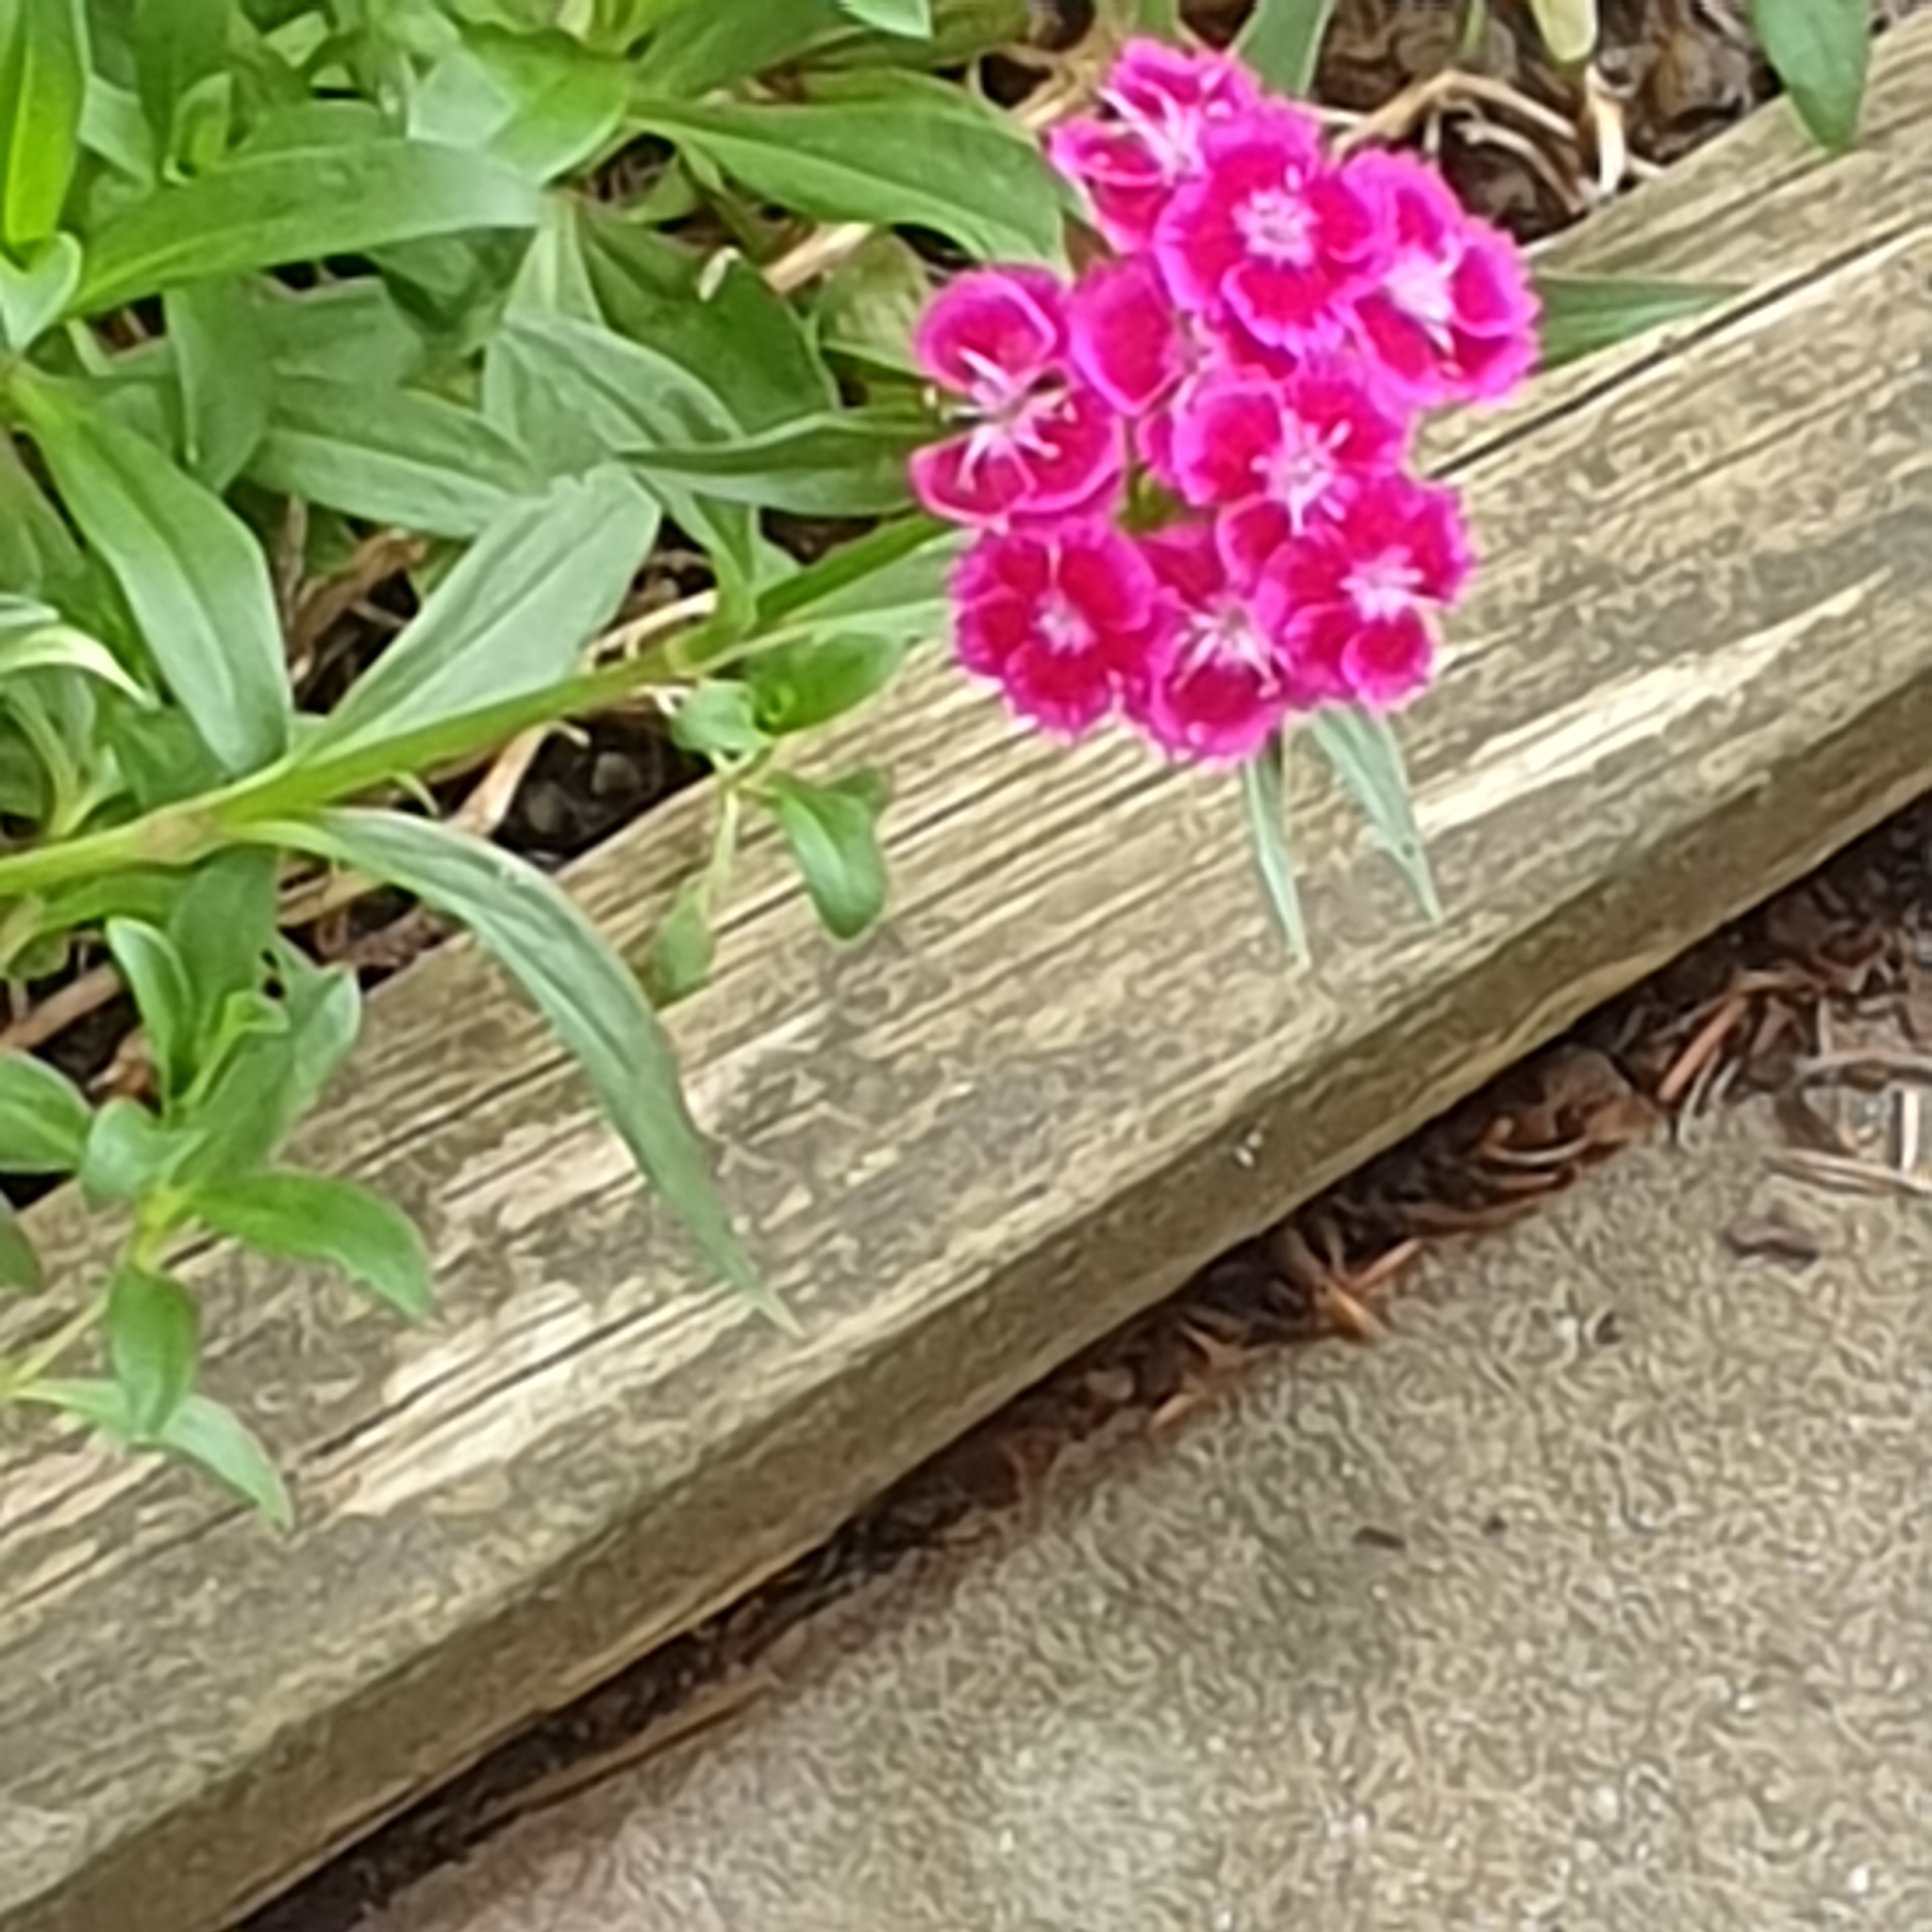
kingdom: Plantae
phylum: Tracheophyta
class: Magnoliopsida
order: Caryophyllales
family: Caryophyllaceae
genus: Dianthus
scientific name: Dianthus barbatus
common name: Sweet-william
